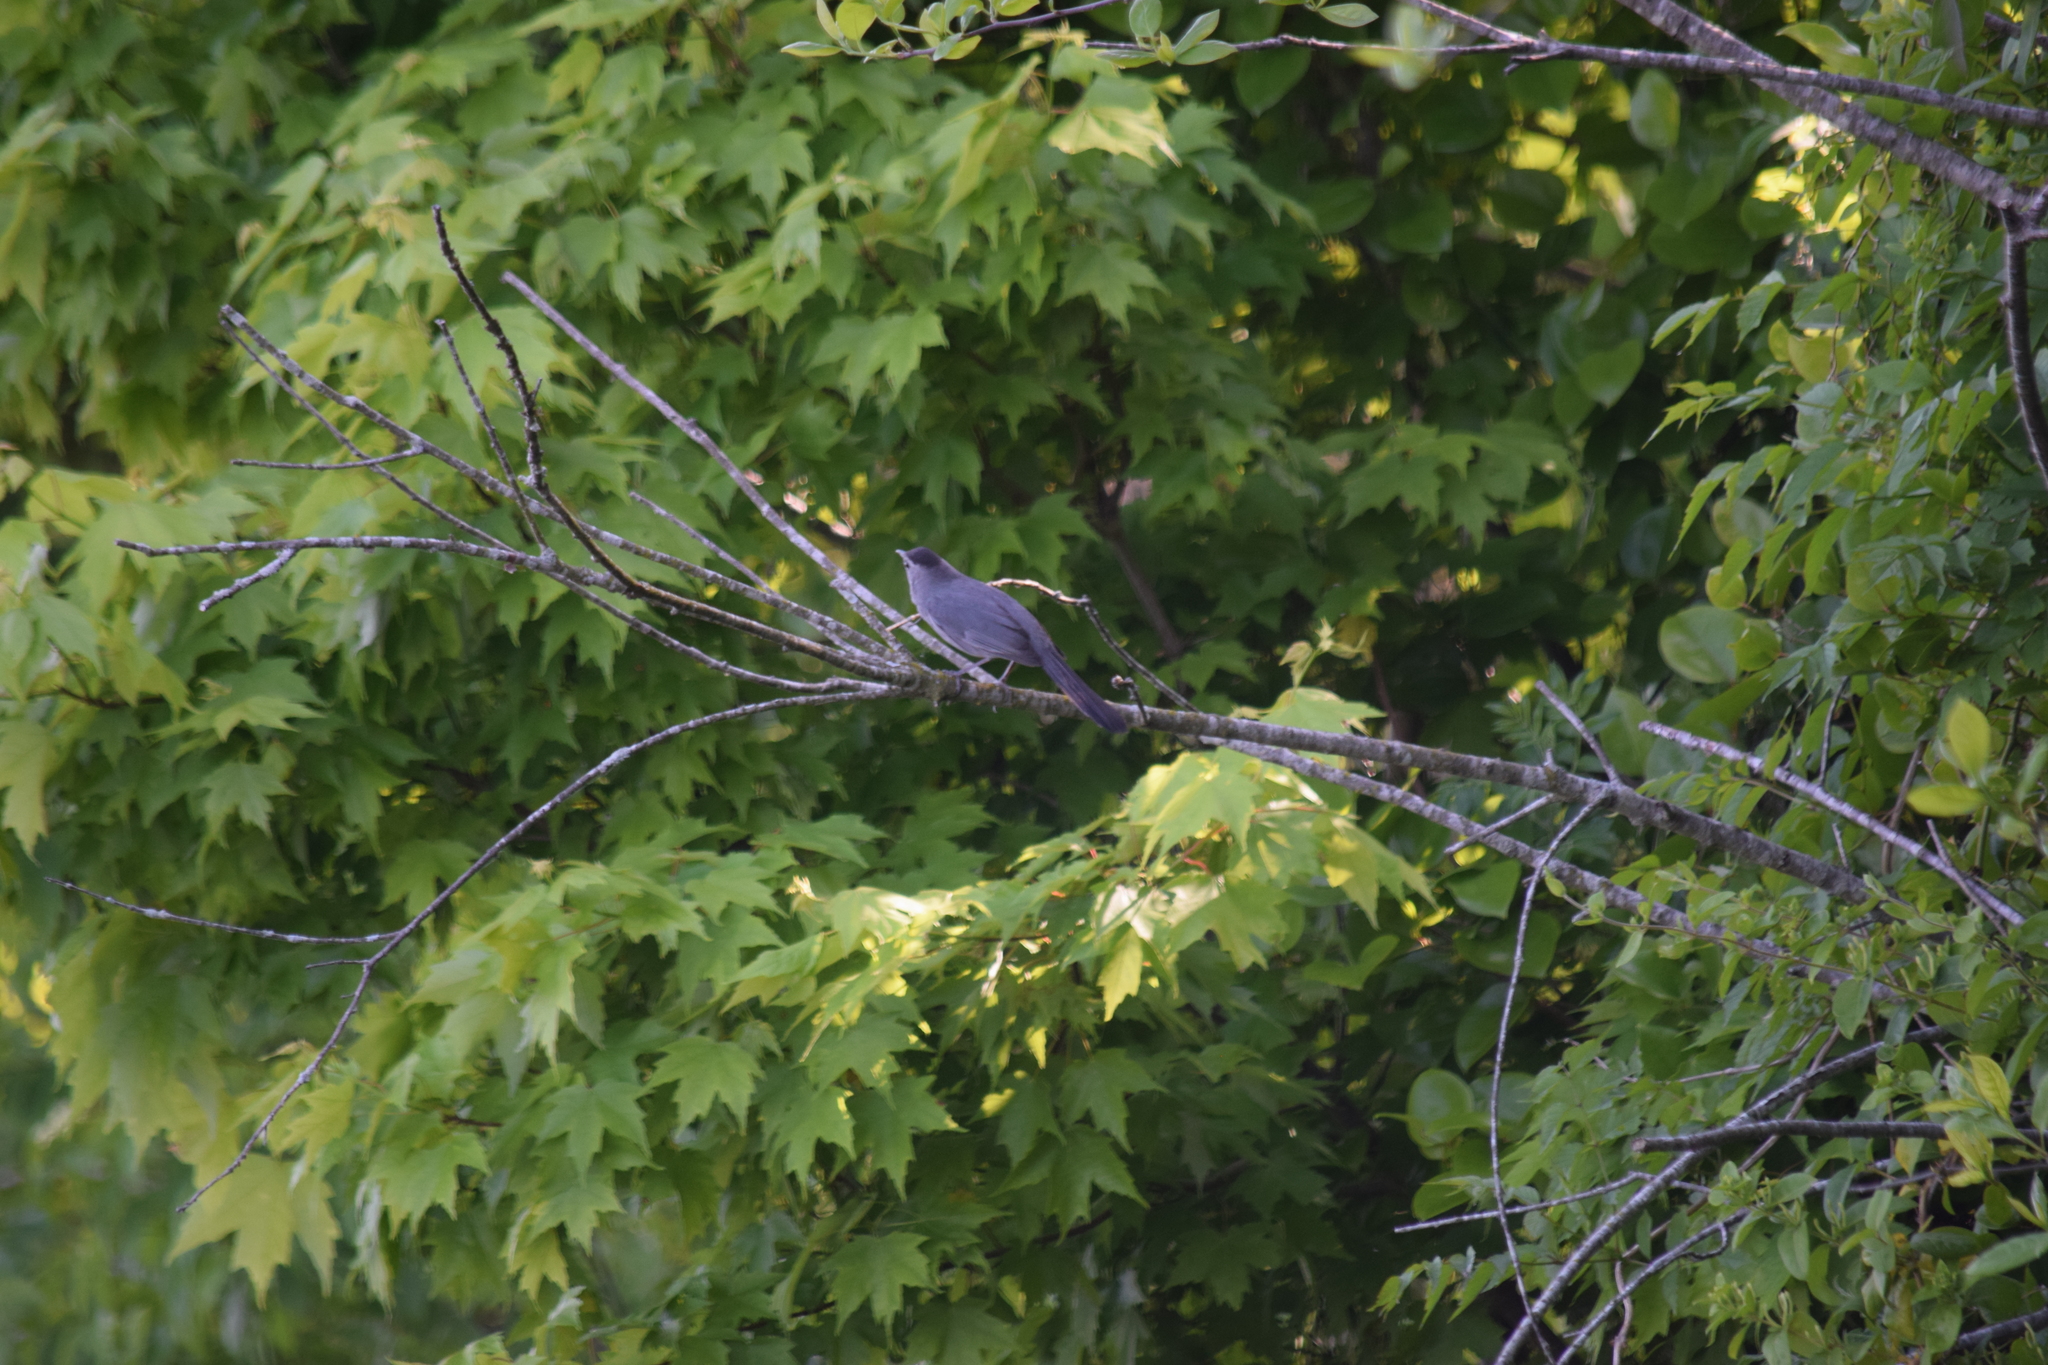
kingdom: Animalia
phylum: Chordata
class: Aves
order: Passeriformes
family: Mimidae
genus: Dumetella
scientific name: Dumetella carolinensis
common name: Gray catbird
